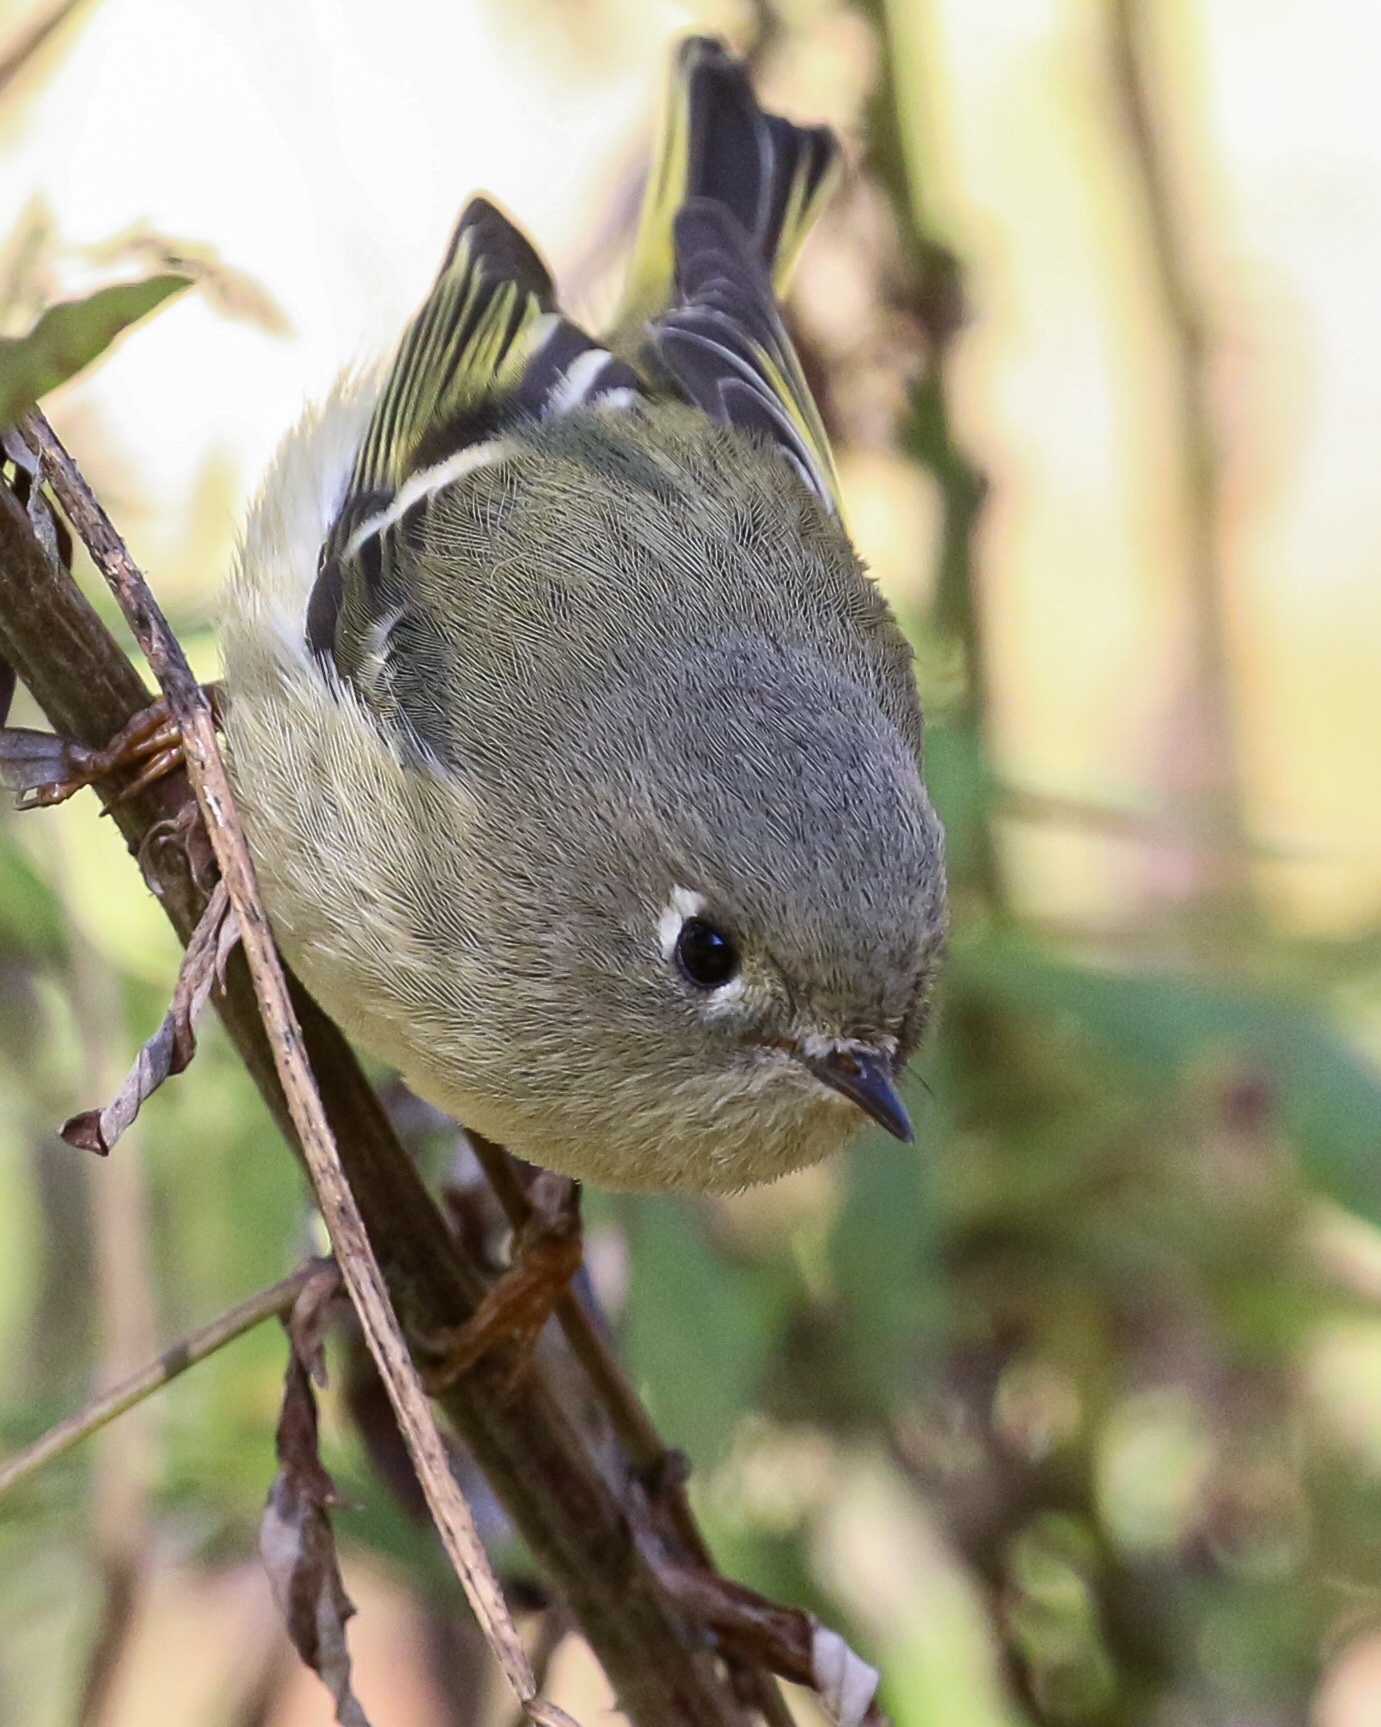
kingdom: Animalia
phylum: Chordata
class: Aves
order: Passeriformes
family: Regulidae
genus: Regulus
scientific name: Regulus calendula
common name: Ruby-crowned kinglet
